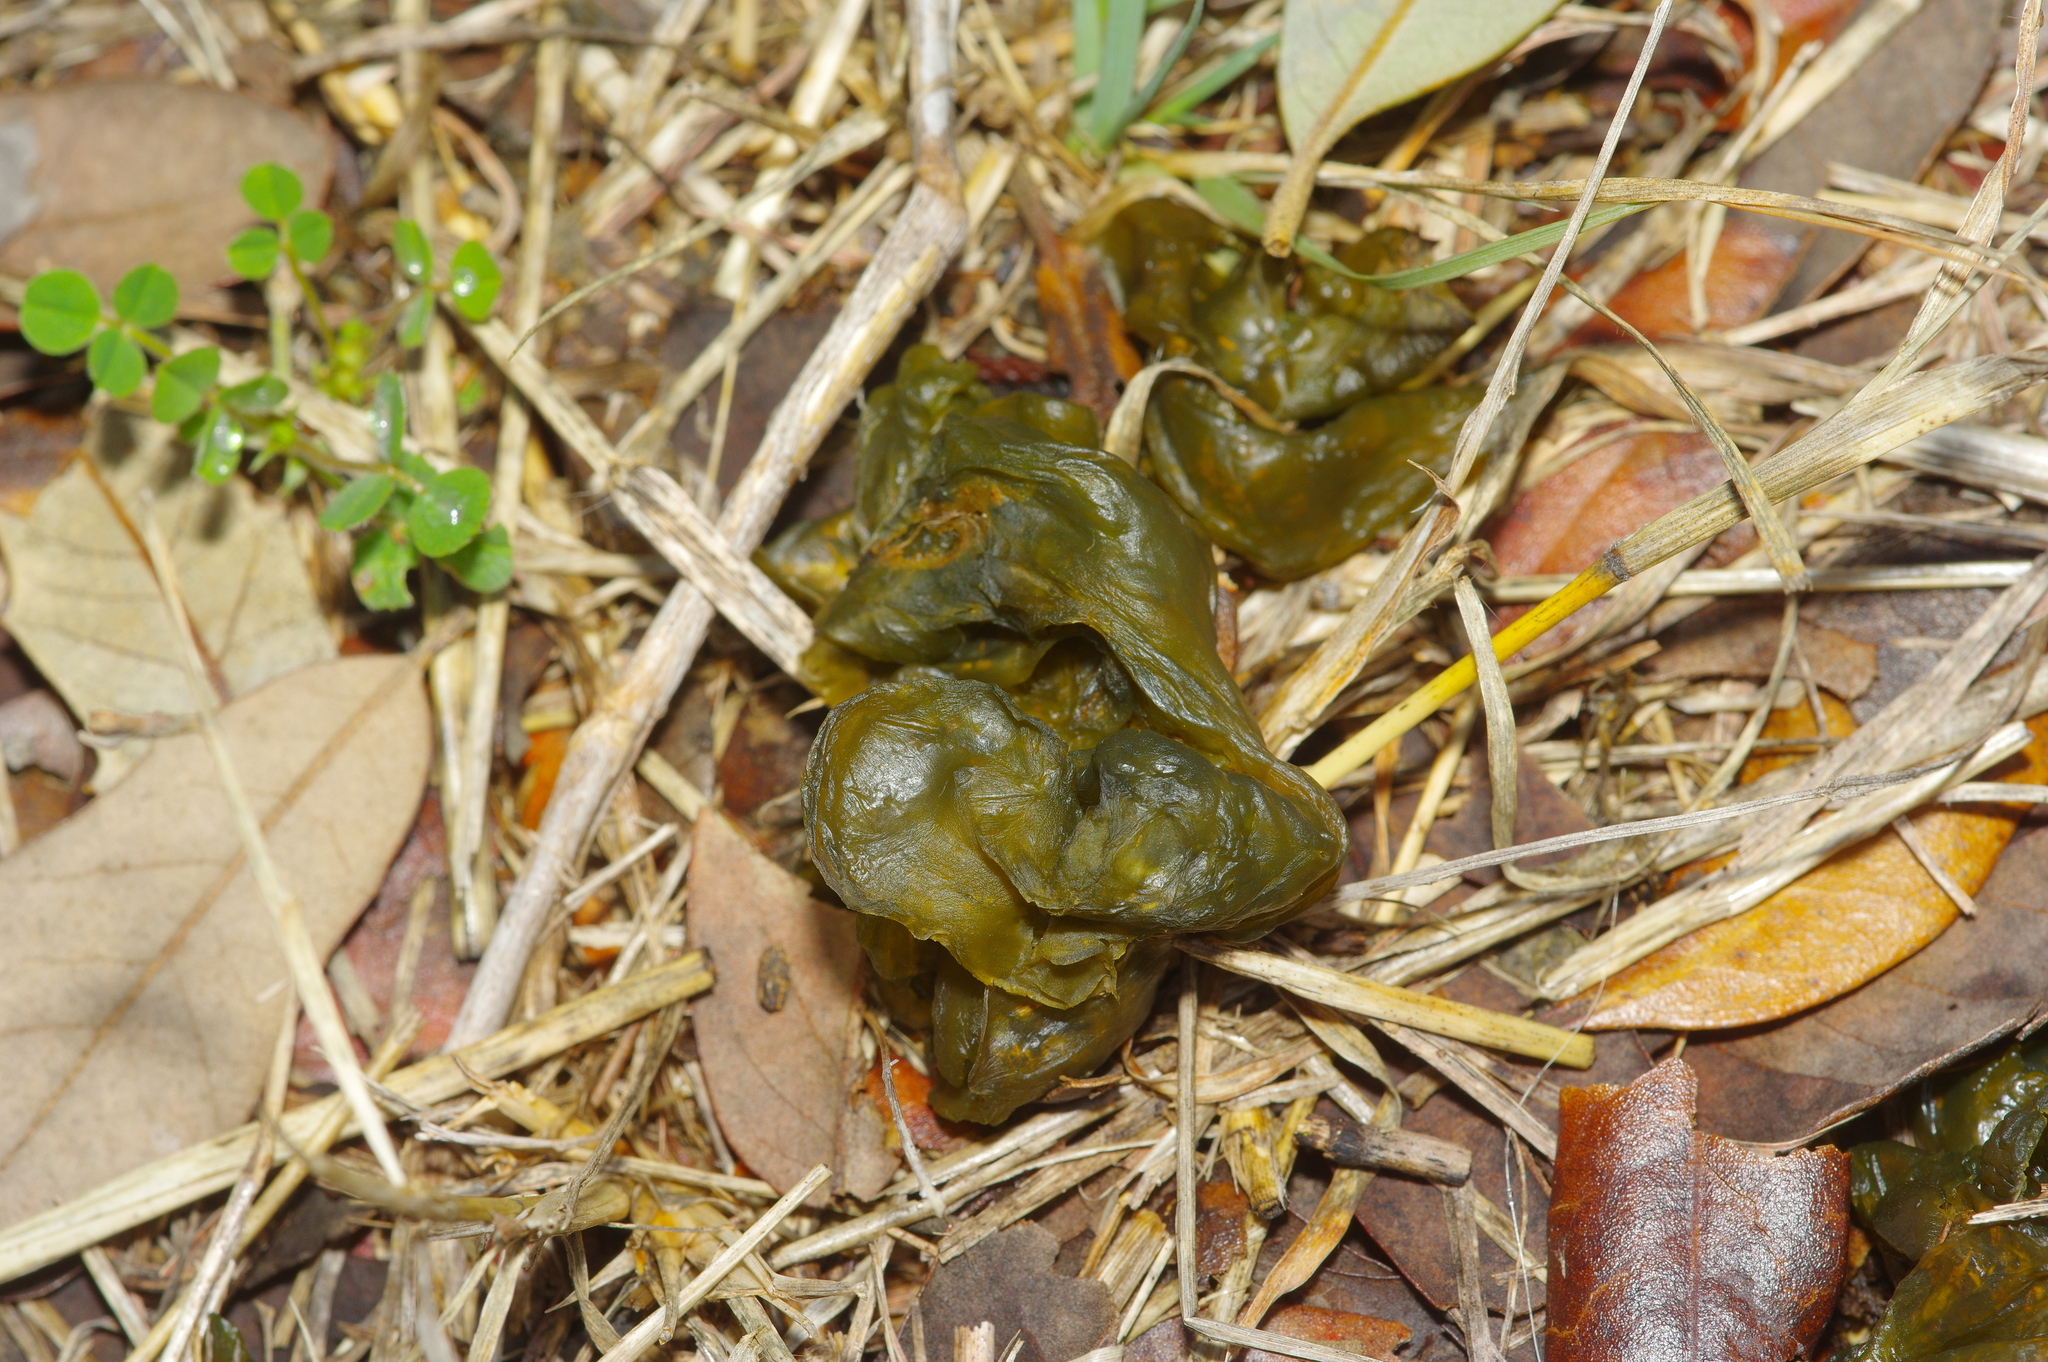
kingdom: Bacteria
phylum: Cyanobacteria
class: Cyanobacteriia
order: Cyanobacteriales
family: Nostocaceae
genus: Nostoc
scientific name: Nostoc commune
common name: Star jelly
